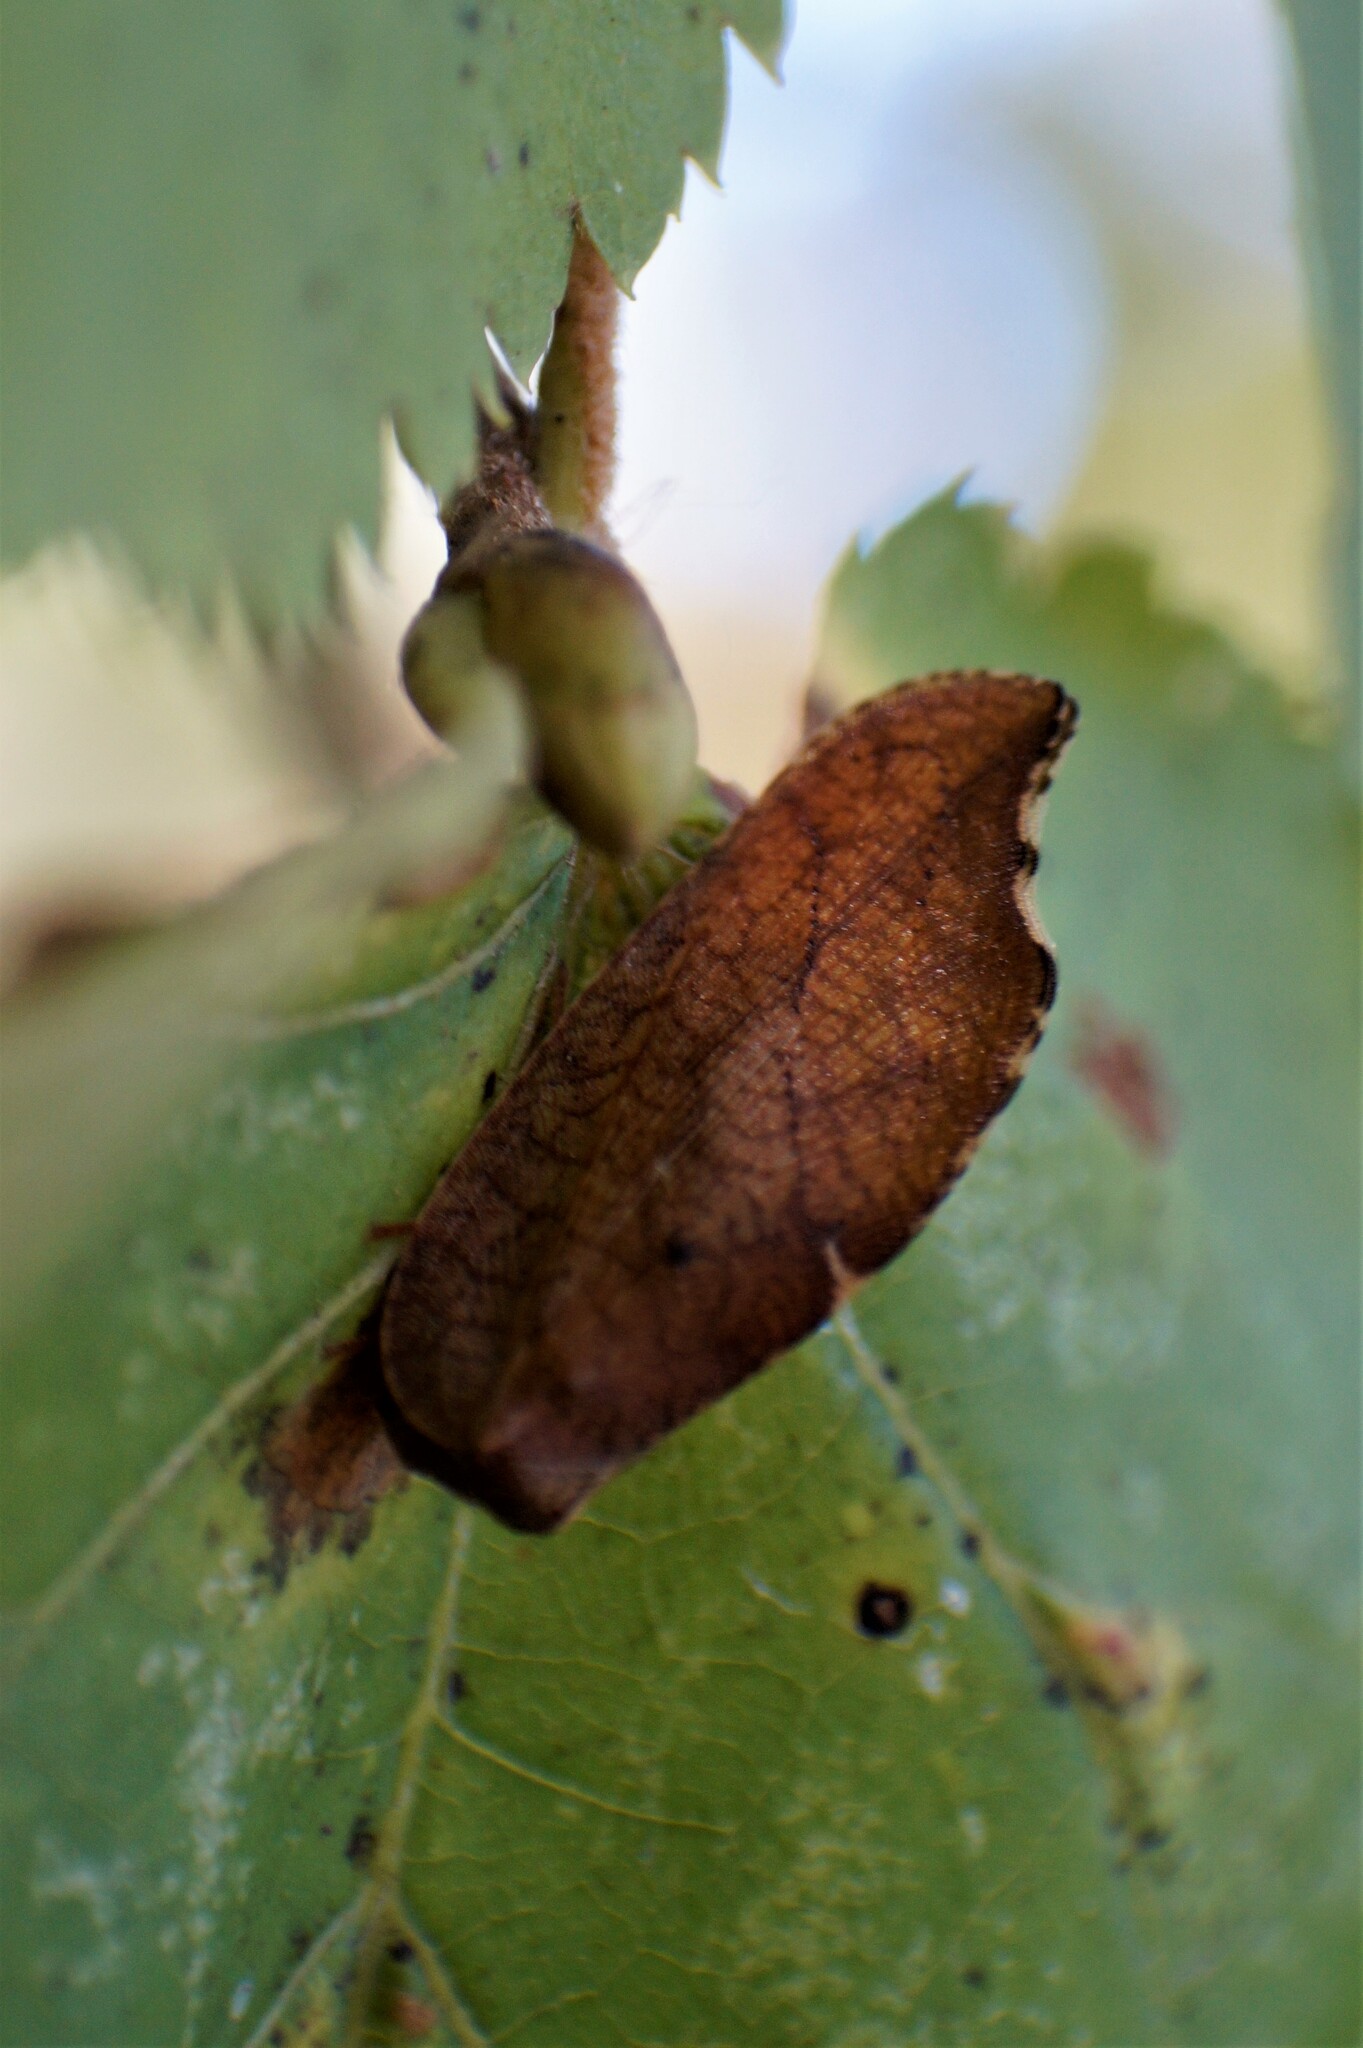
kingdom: Animalia
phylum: Arthropoda
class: Insecta
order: Neuroptera
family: Hemerobiidae
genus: Drepanepteryx
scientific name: Drepanepteryx phalaenoides
